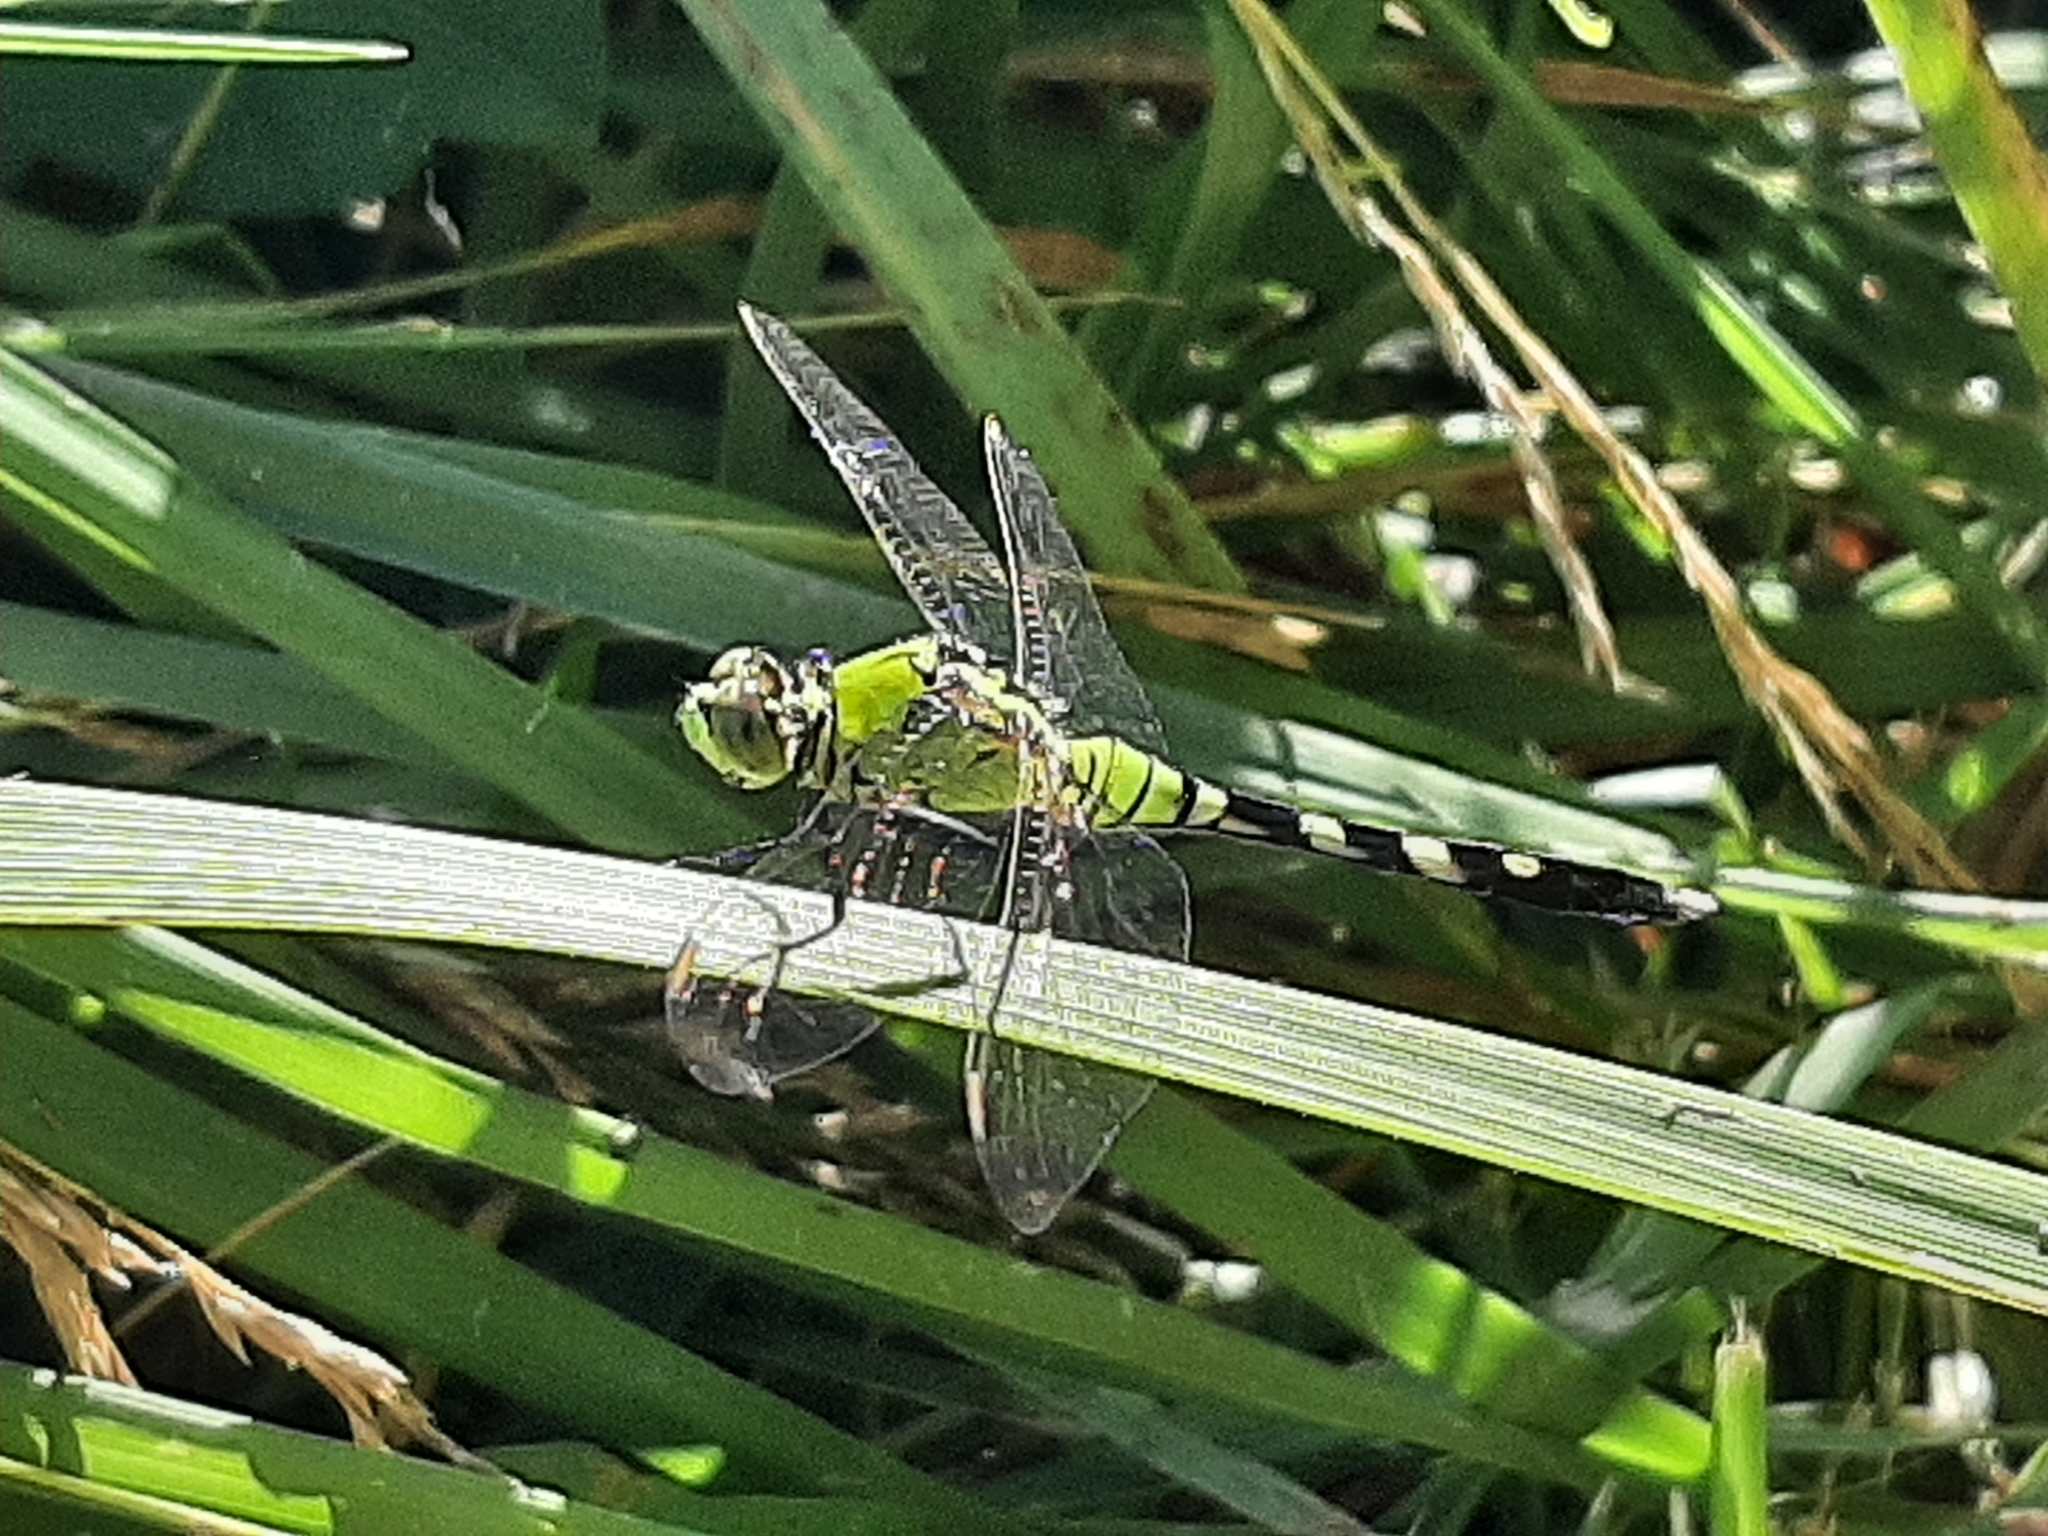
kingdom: Animalia
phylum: Arthropoda
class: Insecta
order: Odonata
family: Libellulidae
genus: Erythemis
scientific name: Erythemis simplicicollis
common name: Eastern pondhawk
